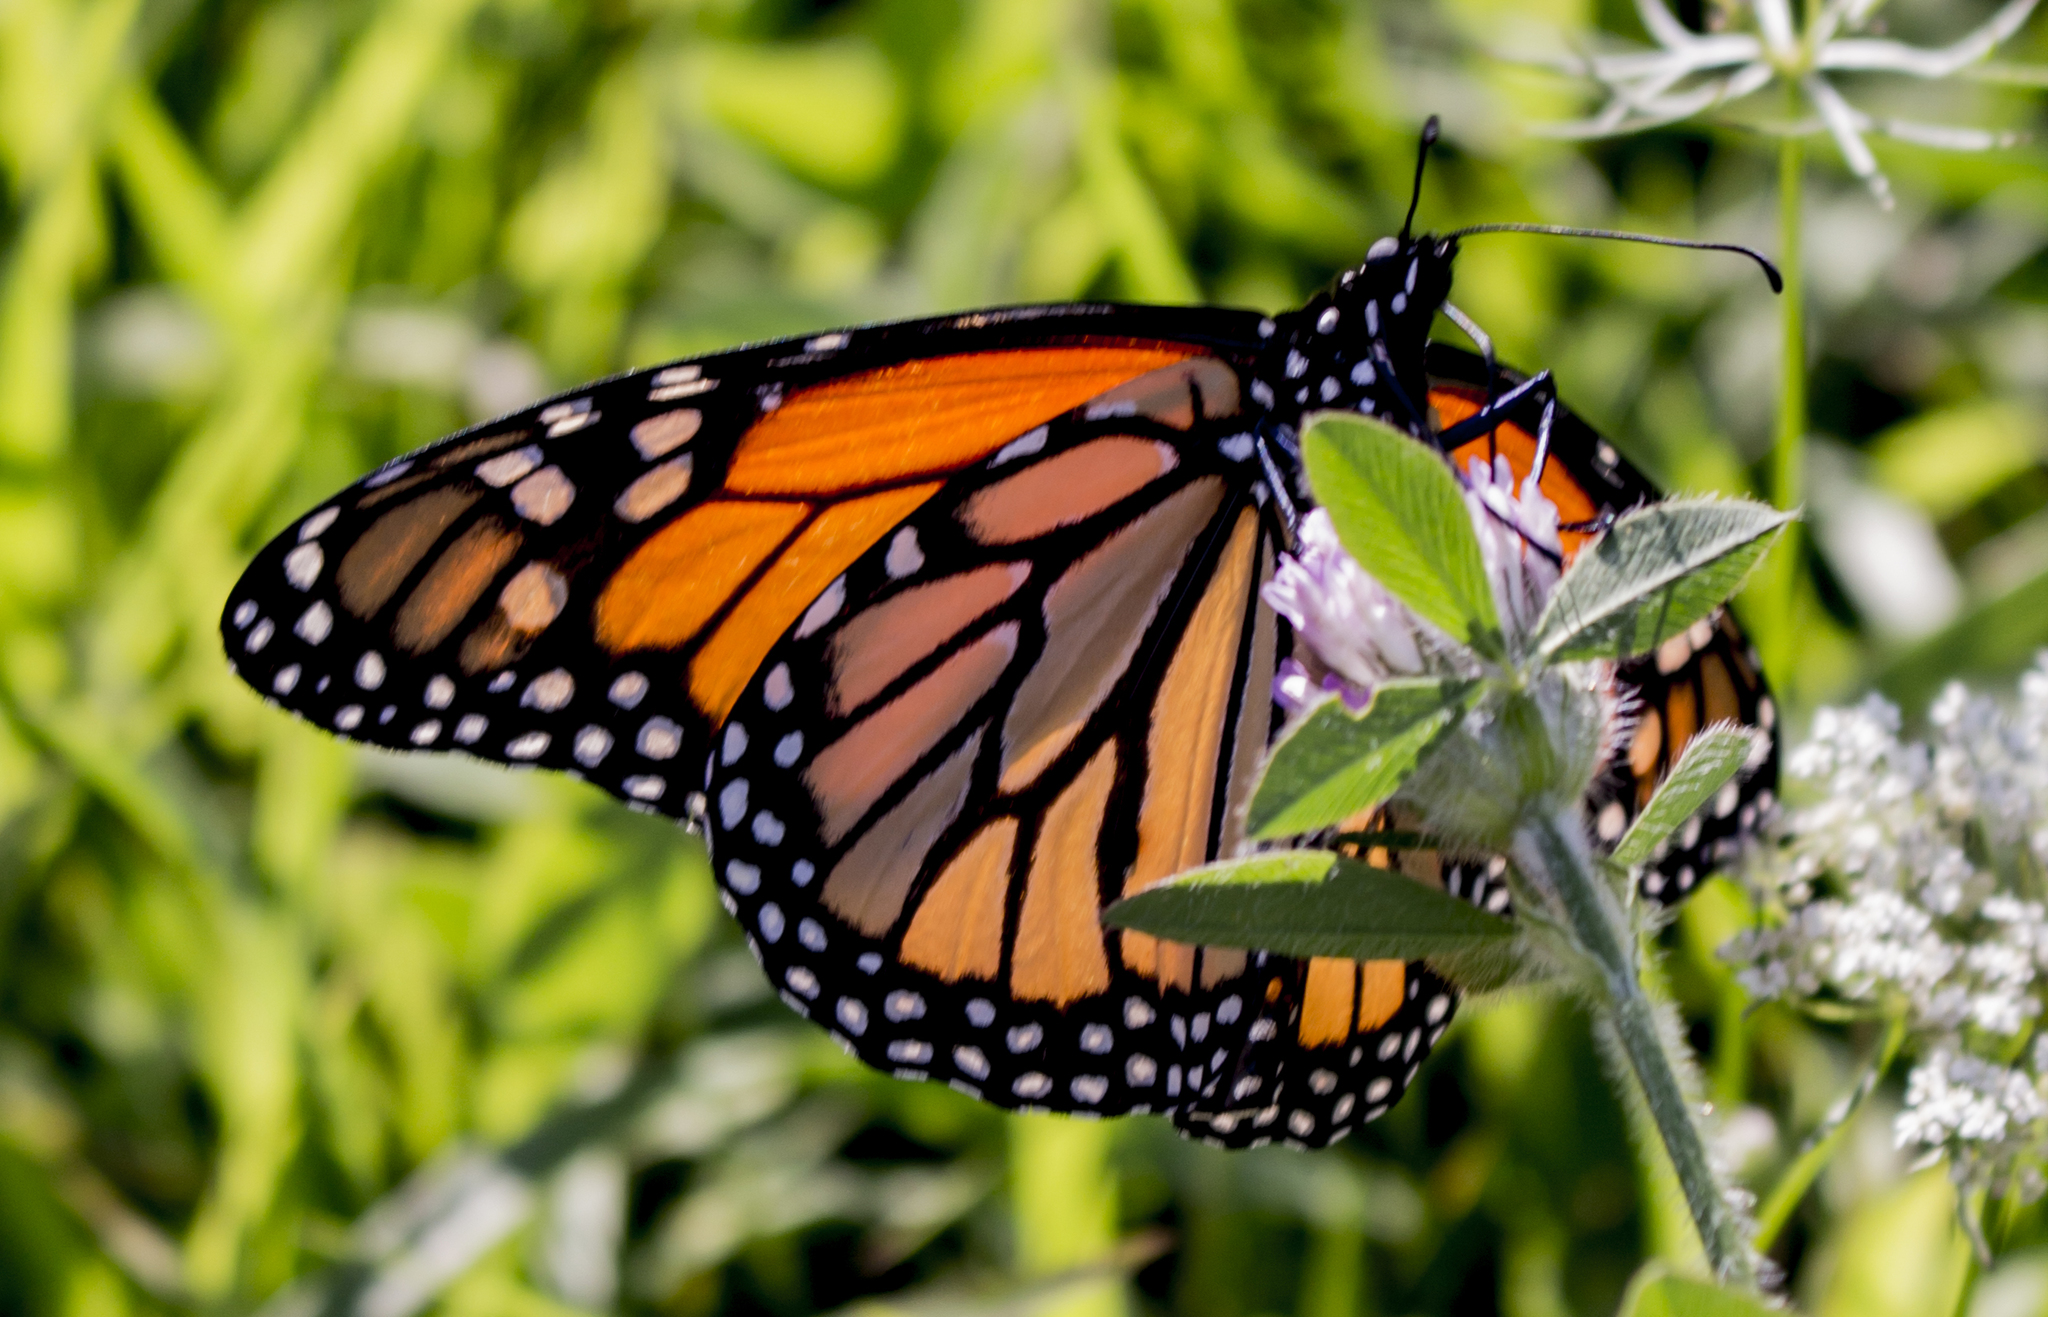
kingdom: Animalia
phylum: Arthropoda
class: Insecta
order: Lepidoptera
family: Nymphalidae
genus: Danaus
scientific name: Danaus plexippus
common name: Monarch
